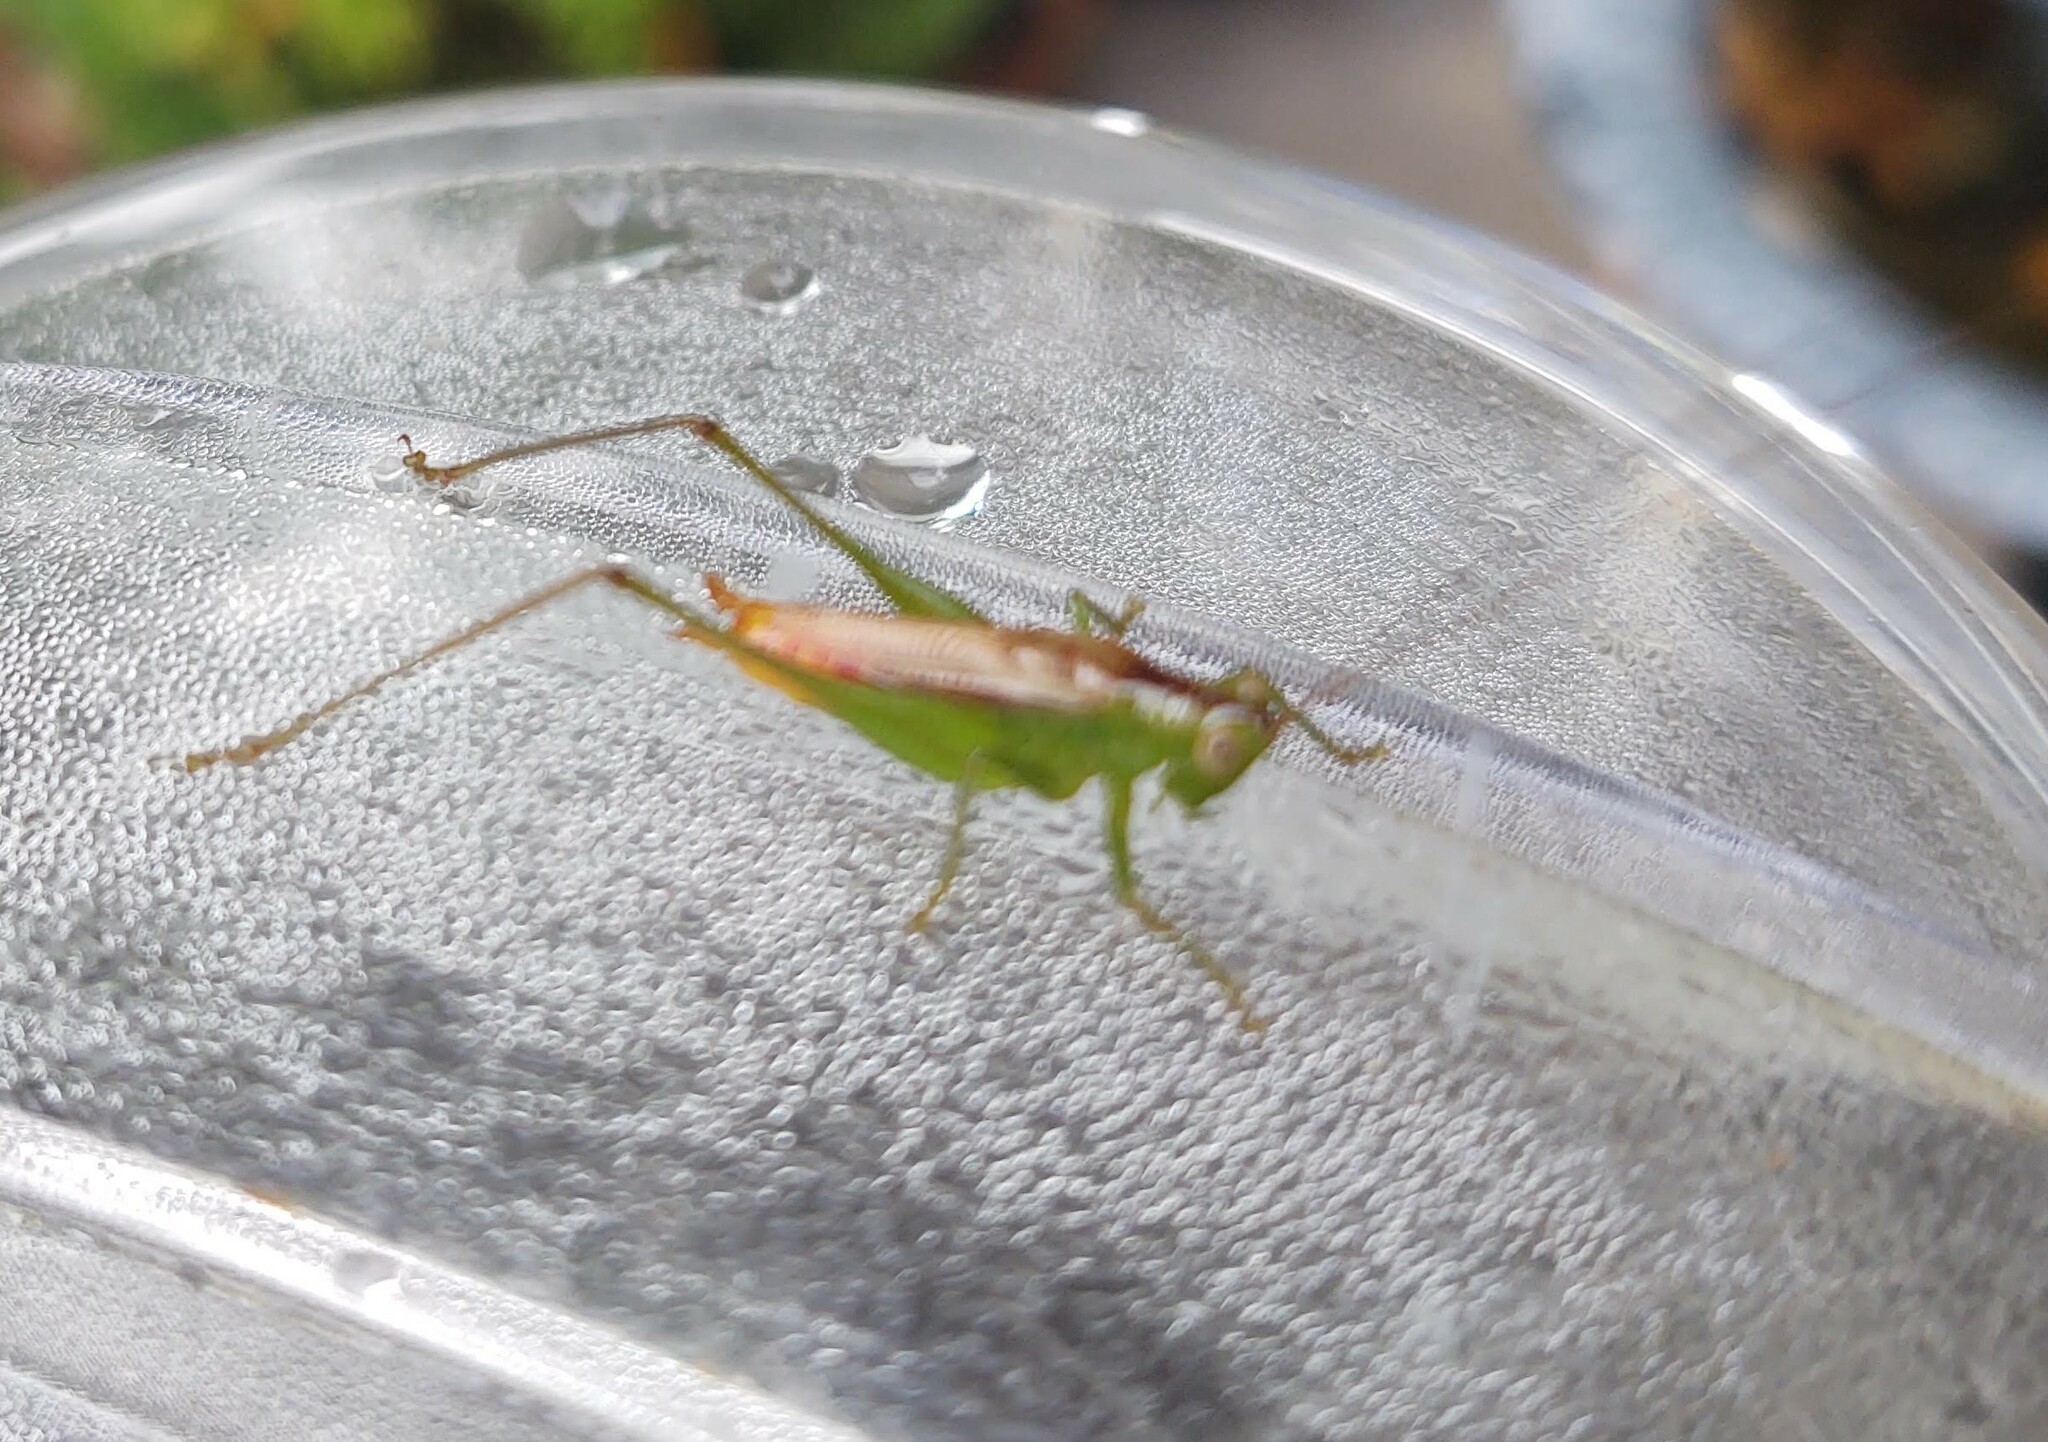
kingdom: Animalia
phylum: Arthropoda
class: Insecta
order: Orthoptera
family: Tettigoniidae
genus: Conocephalus
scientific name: Conocephalus brevipennis
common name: Short-winged meadow katydid
